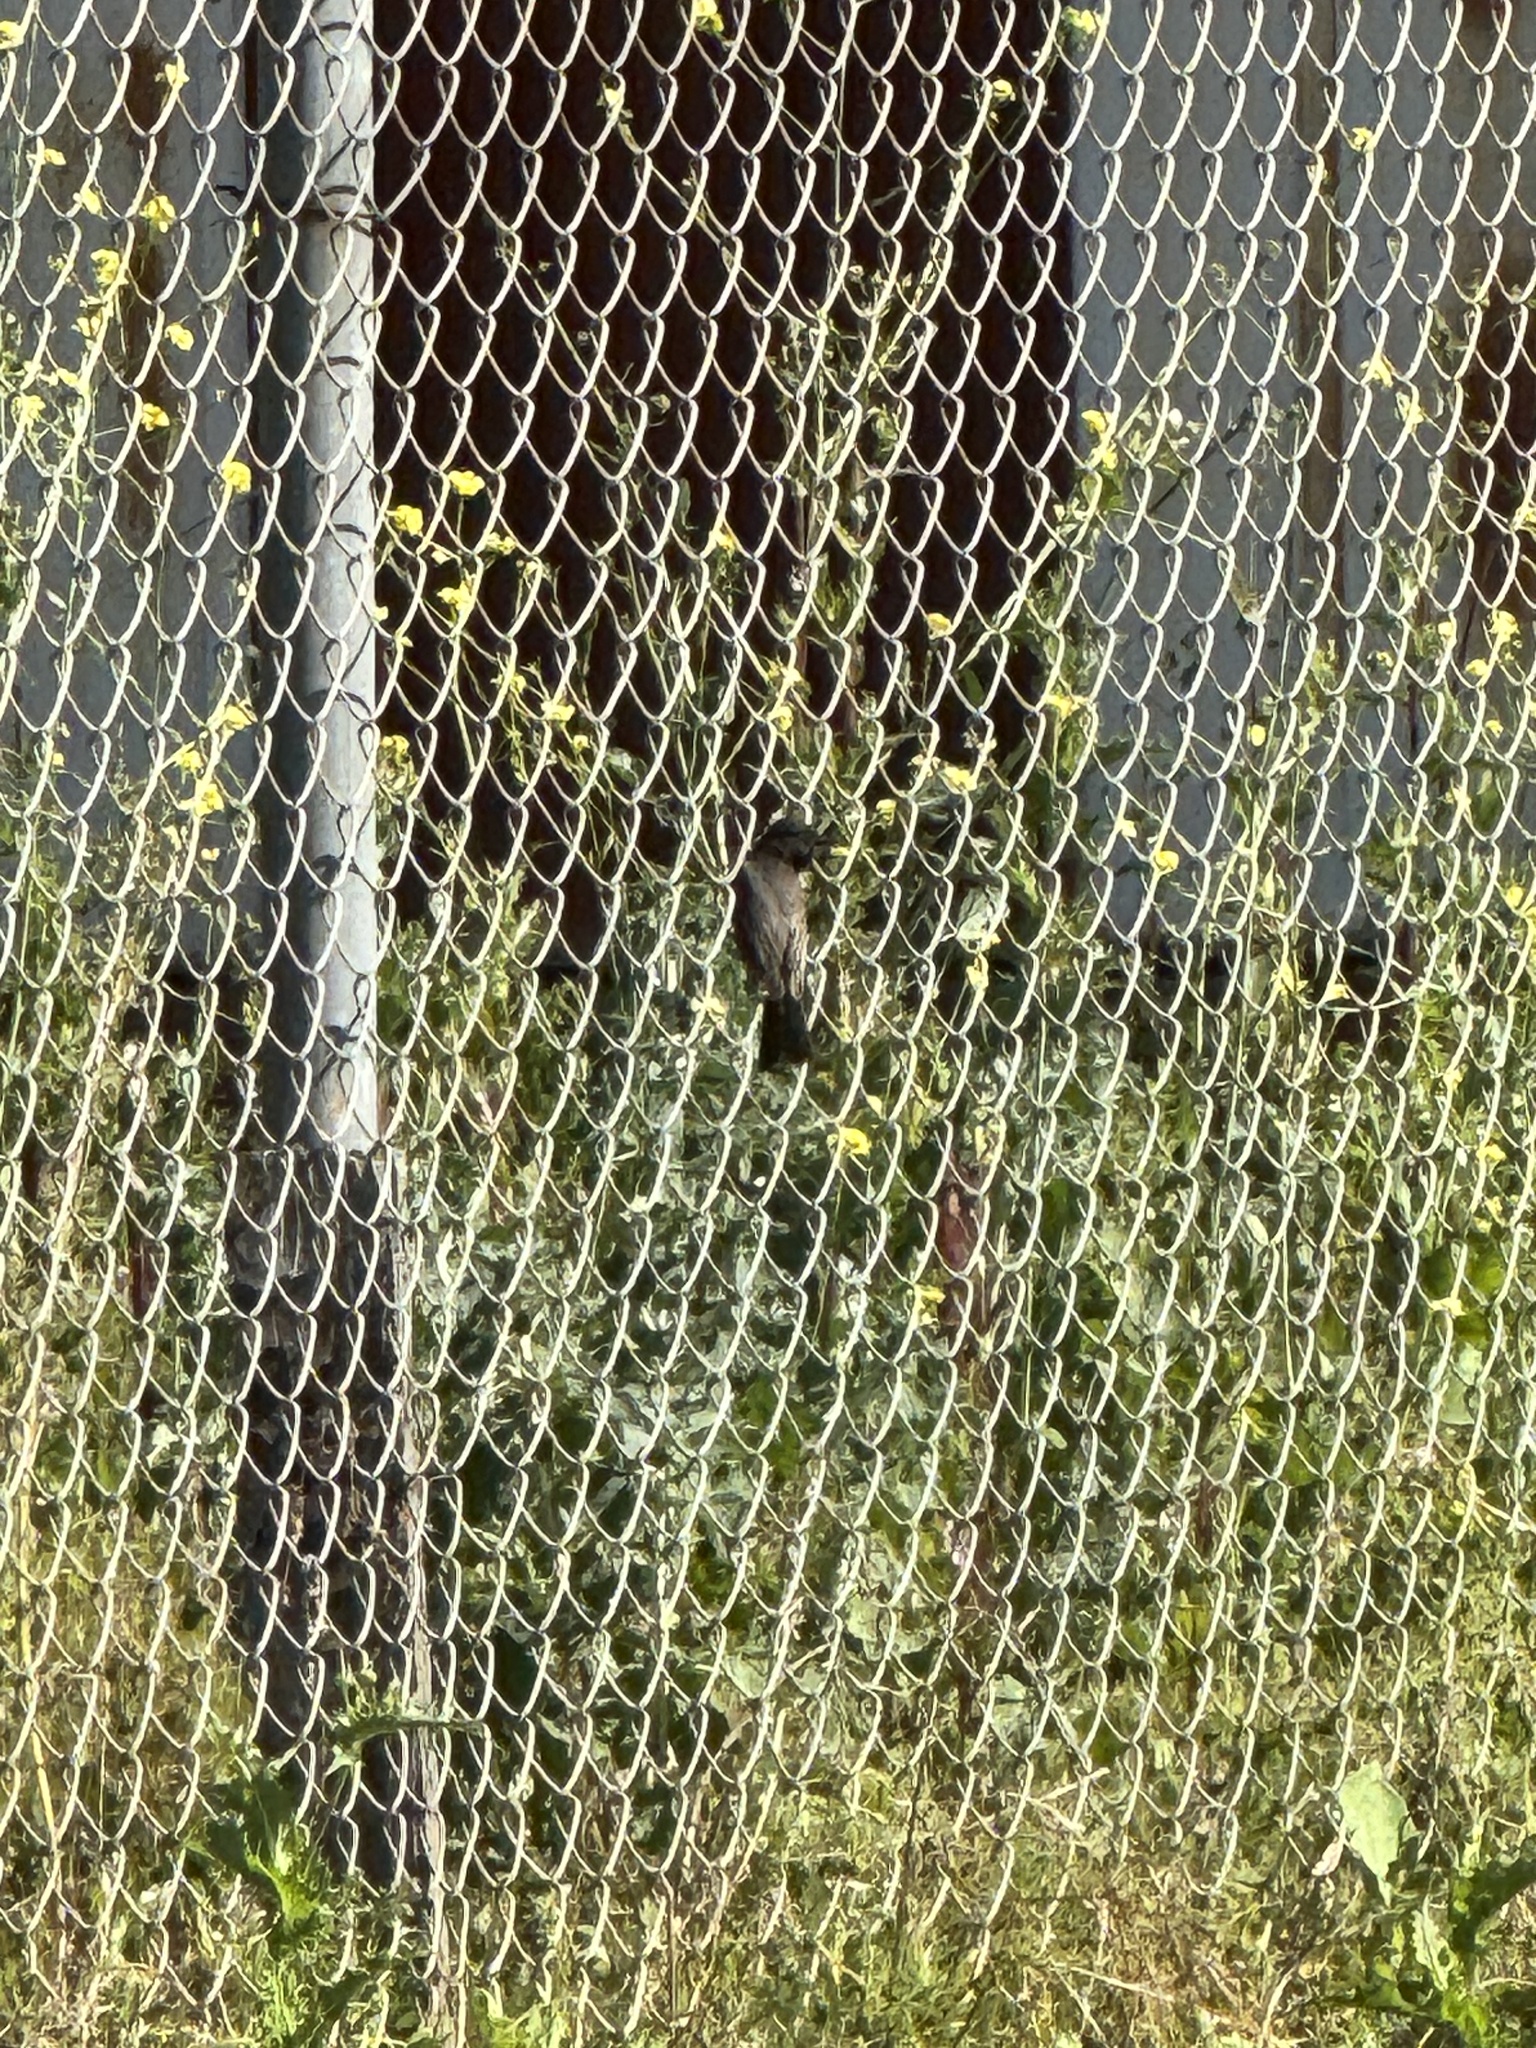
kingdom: Animalia
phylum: Chordata
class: Aves
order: Passeriformes
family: Tyrannidae
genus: Sayornis
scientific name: Sayornis nigricans
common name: Black phoebe
